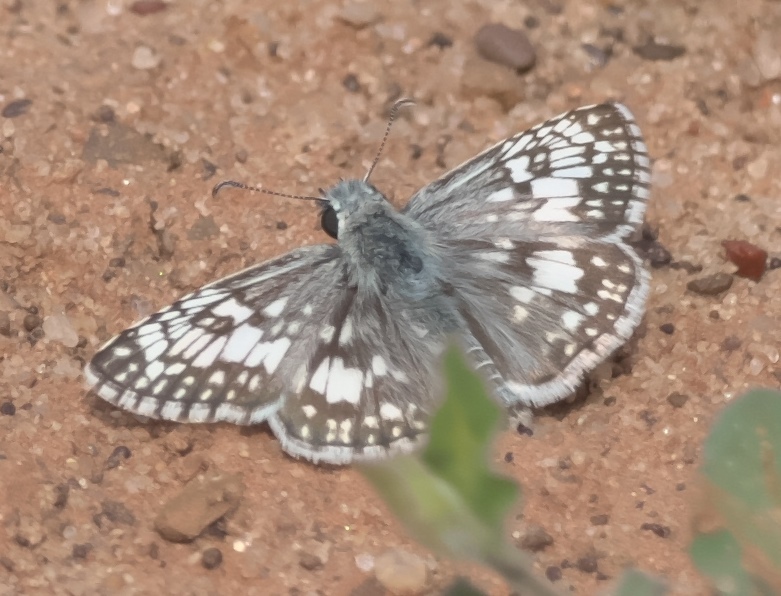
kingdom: Animalia
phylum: Arthropoda
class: Insecta
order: Lepidoptera
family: Hesperiidae
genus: Burnsius
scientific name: Burnsius communis
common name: Common checkered-skipper
